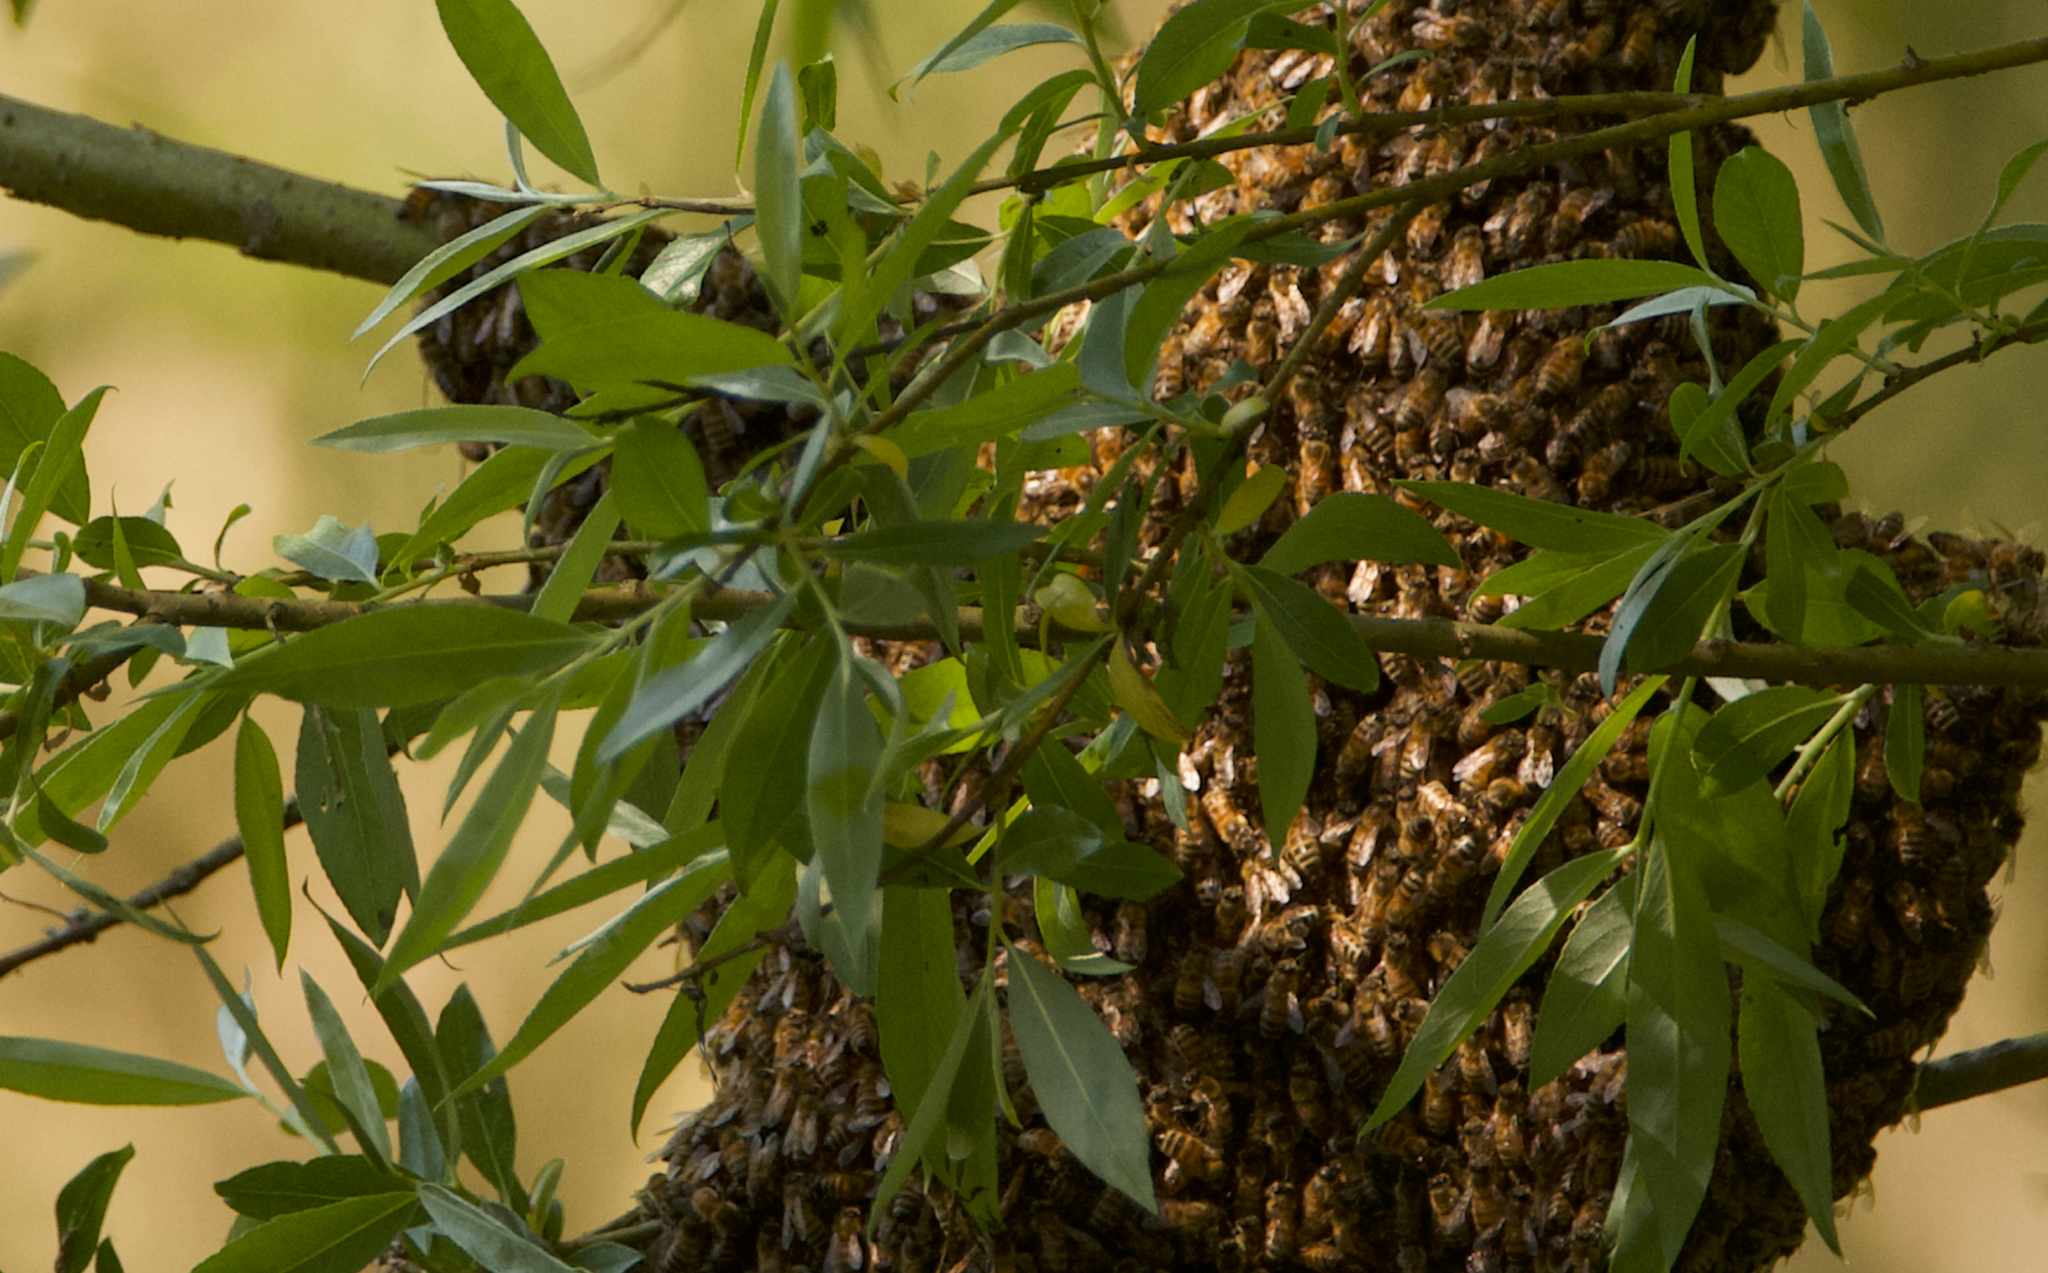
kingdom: Animalia
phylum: Arthropoda
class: Insecta
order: Hymenoptera
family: Apidae
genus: Apis
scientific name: Apis mellifera
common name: Honey bee
